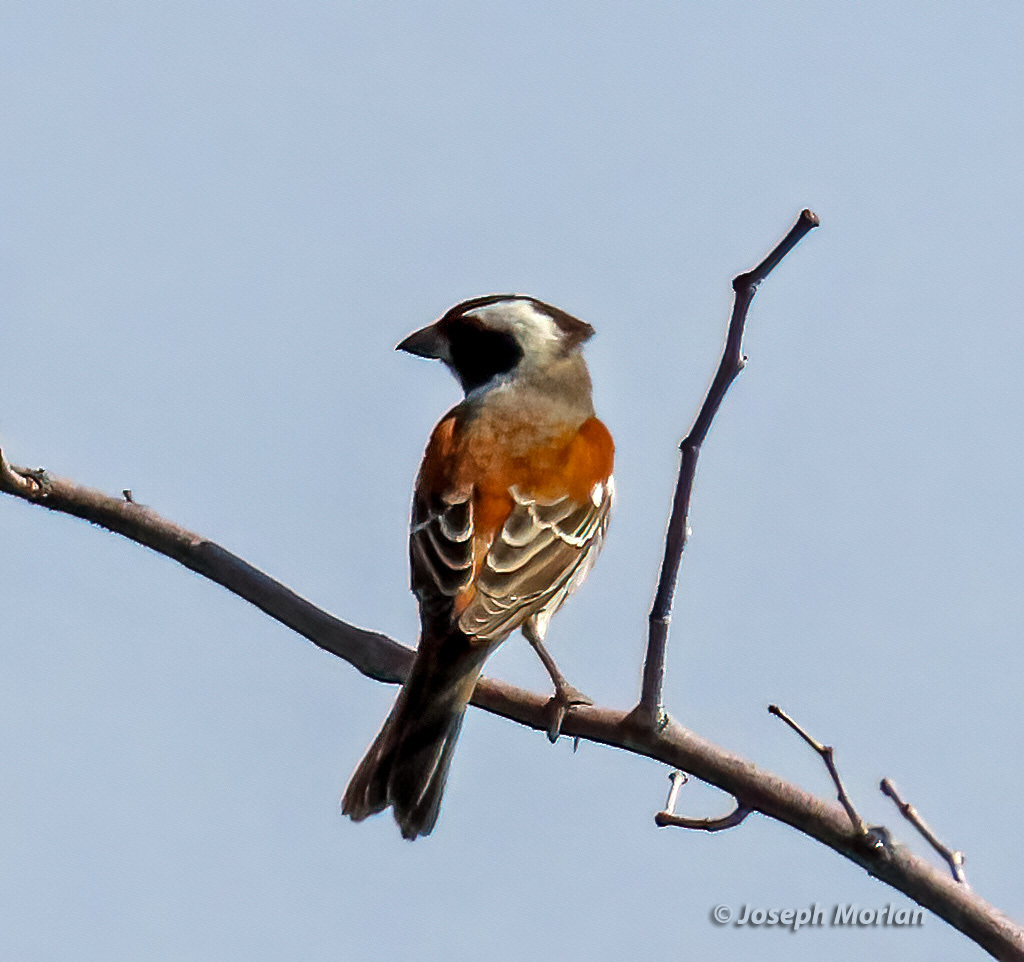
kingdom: Animalia
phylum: Chordata
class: Aves
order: Passeriformes
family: Passeridae
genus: Passer
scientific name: Passer melanurus
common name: Cape sparrow
